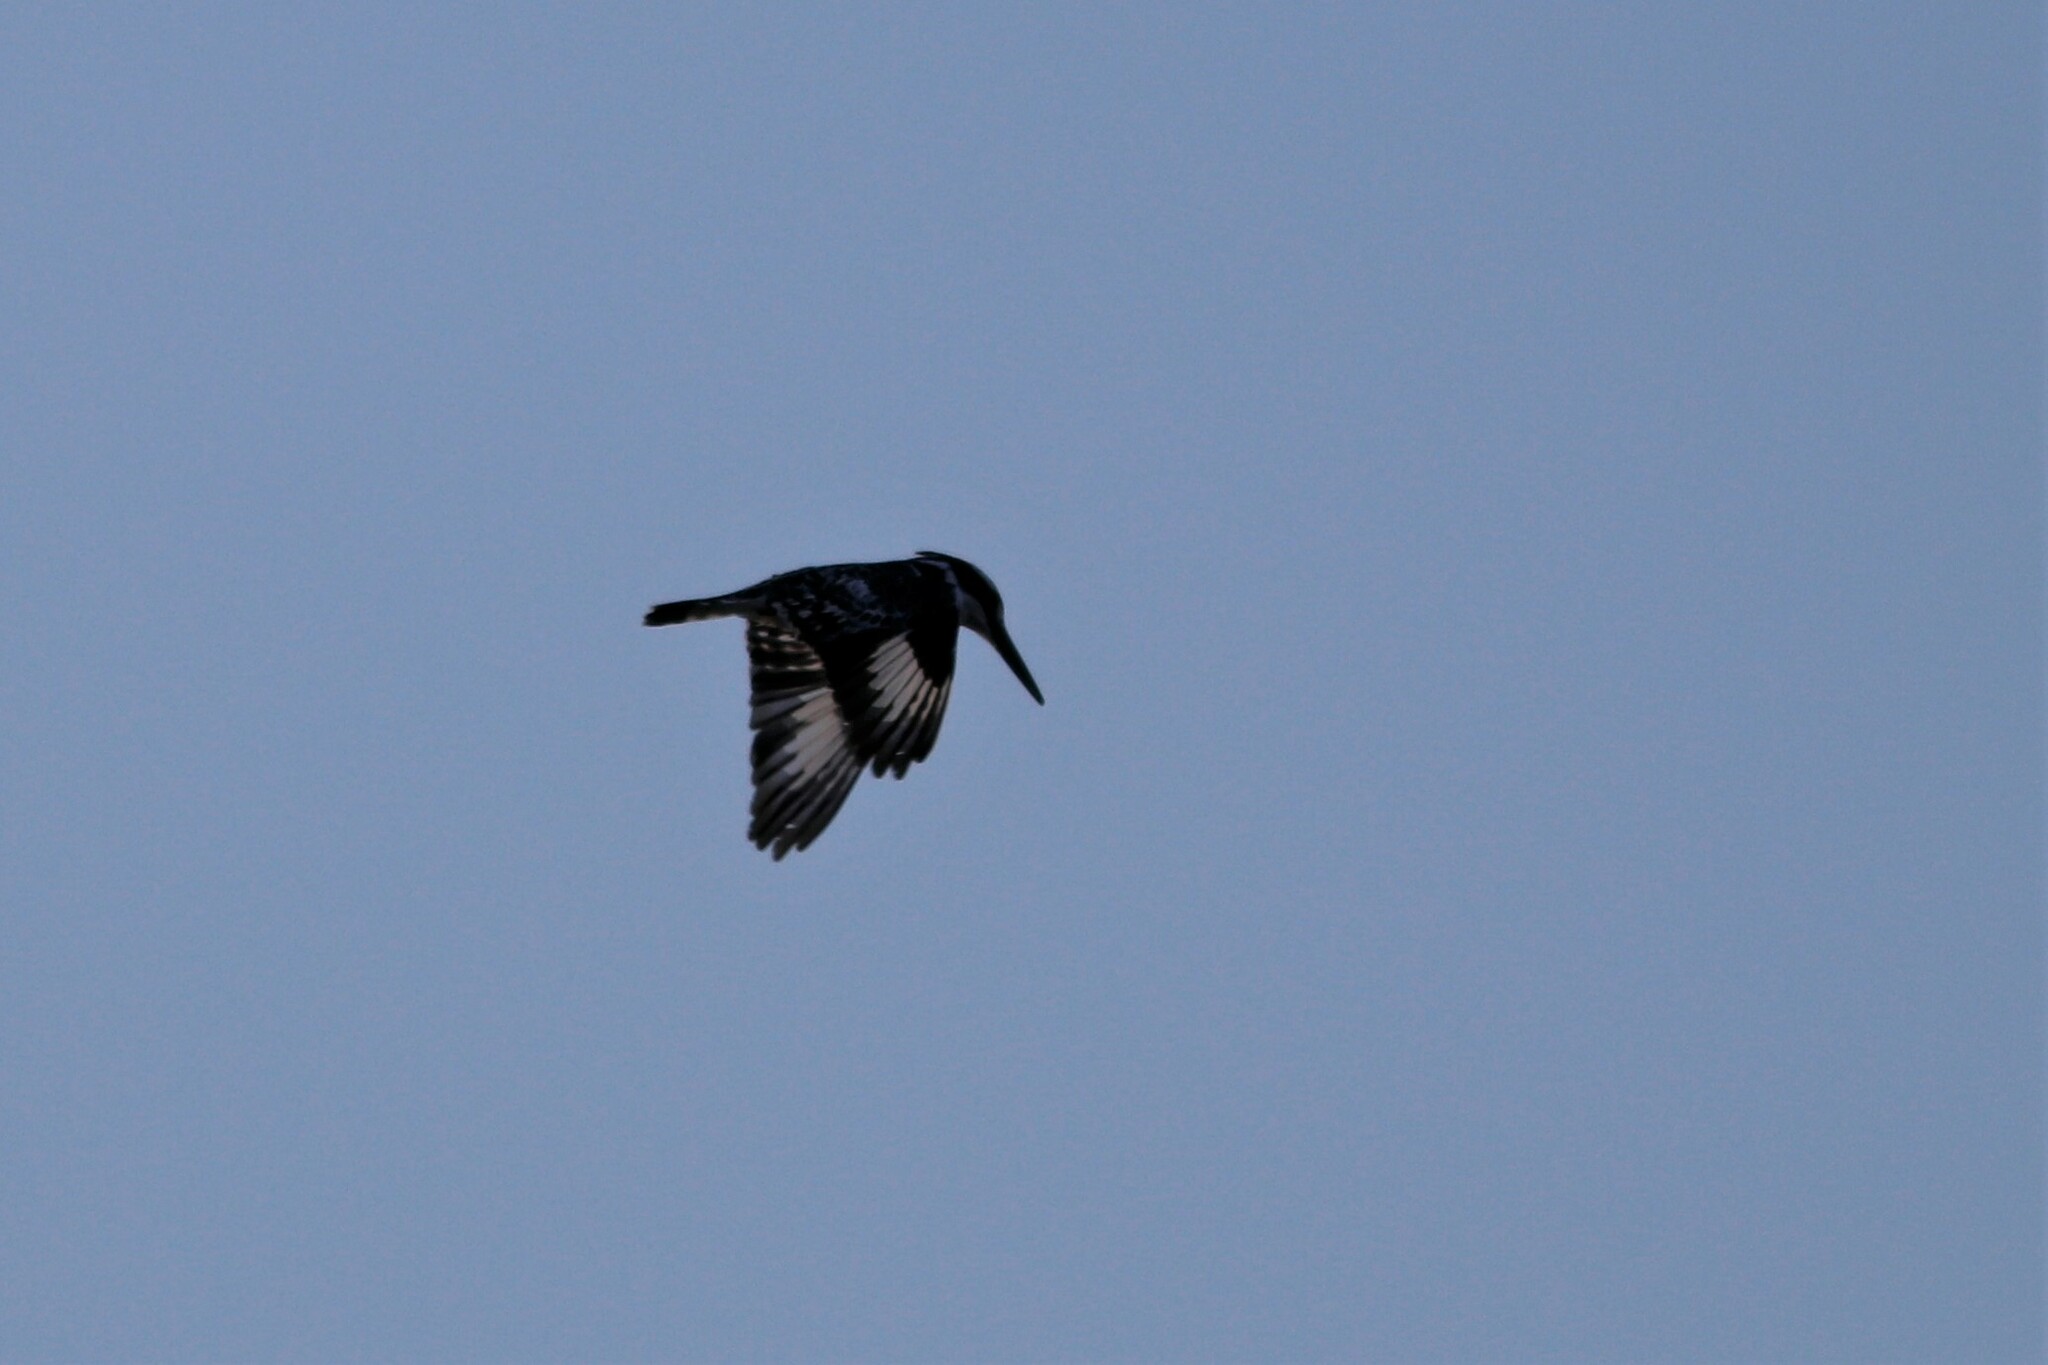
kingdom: Animalia
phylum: Chordata
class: Aves
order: Coraciiformes
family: Alcedinidae
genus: Ceryle
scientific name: Ceryle rudis
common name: Pied kingfisher
